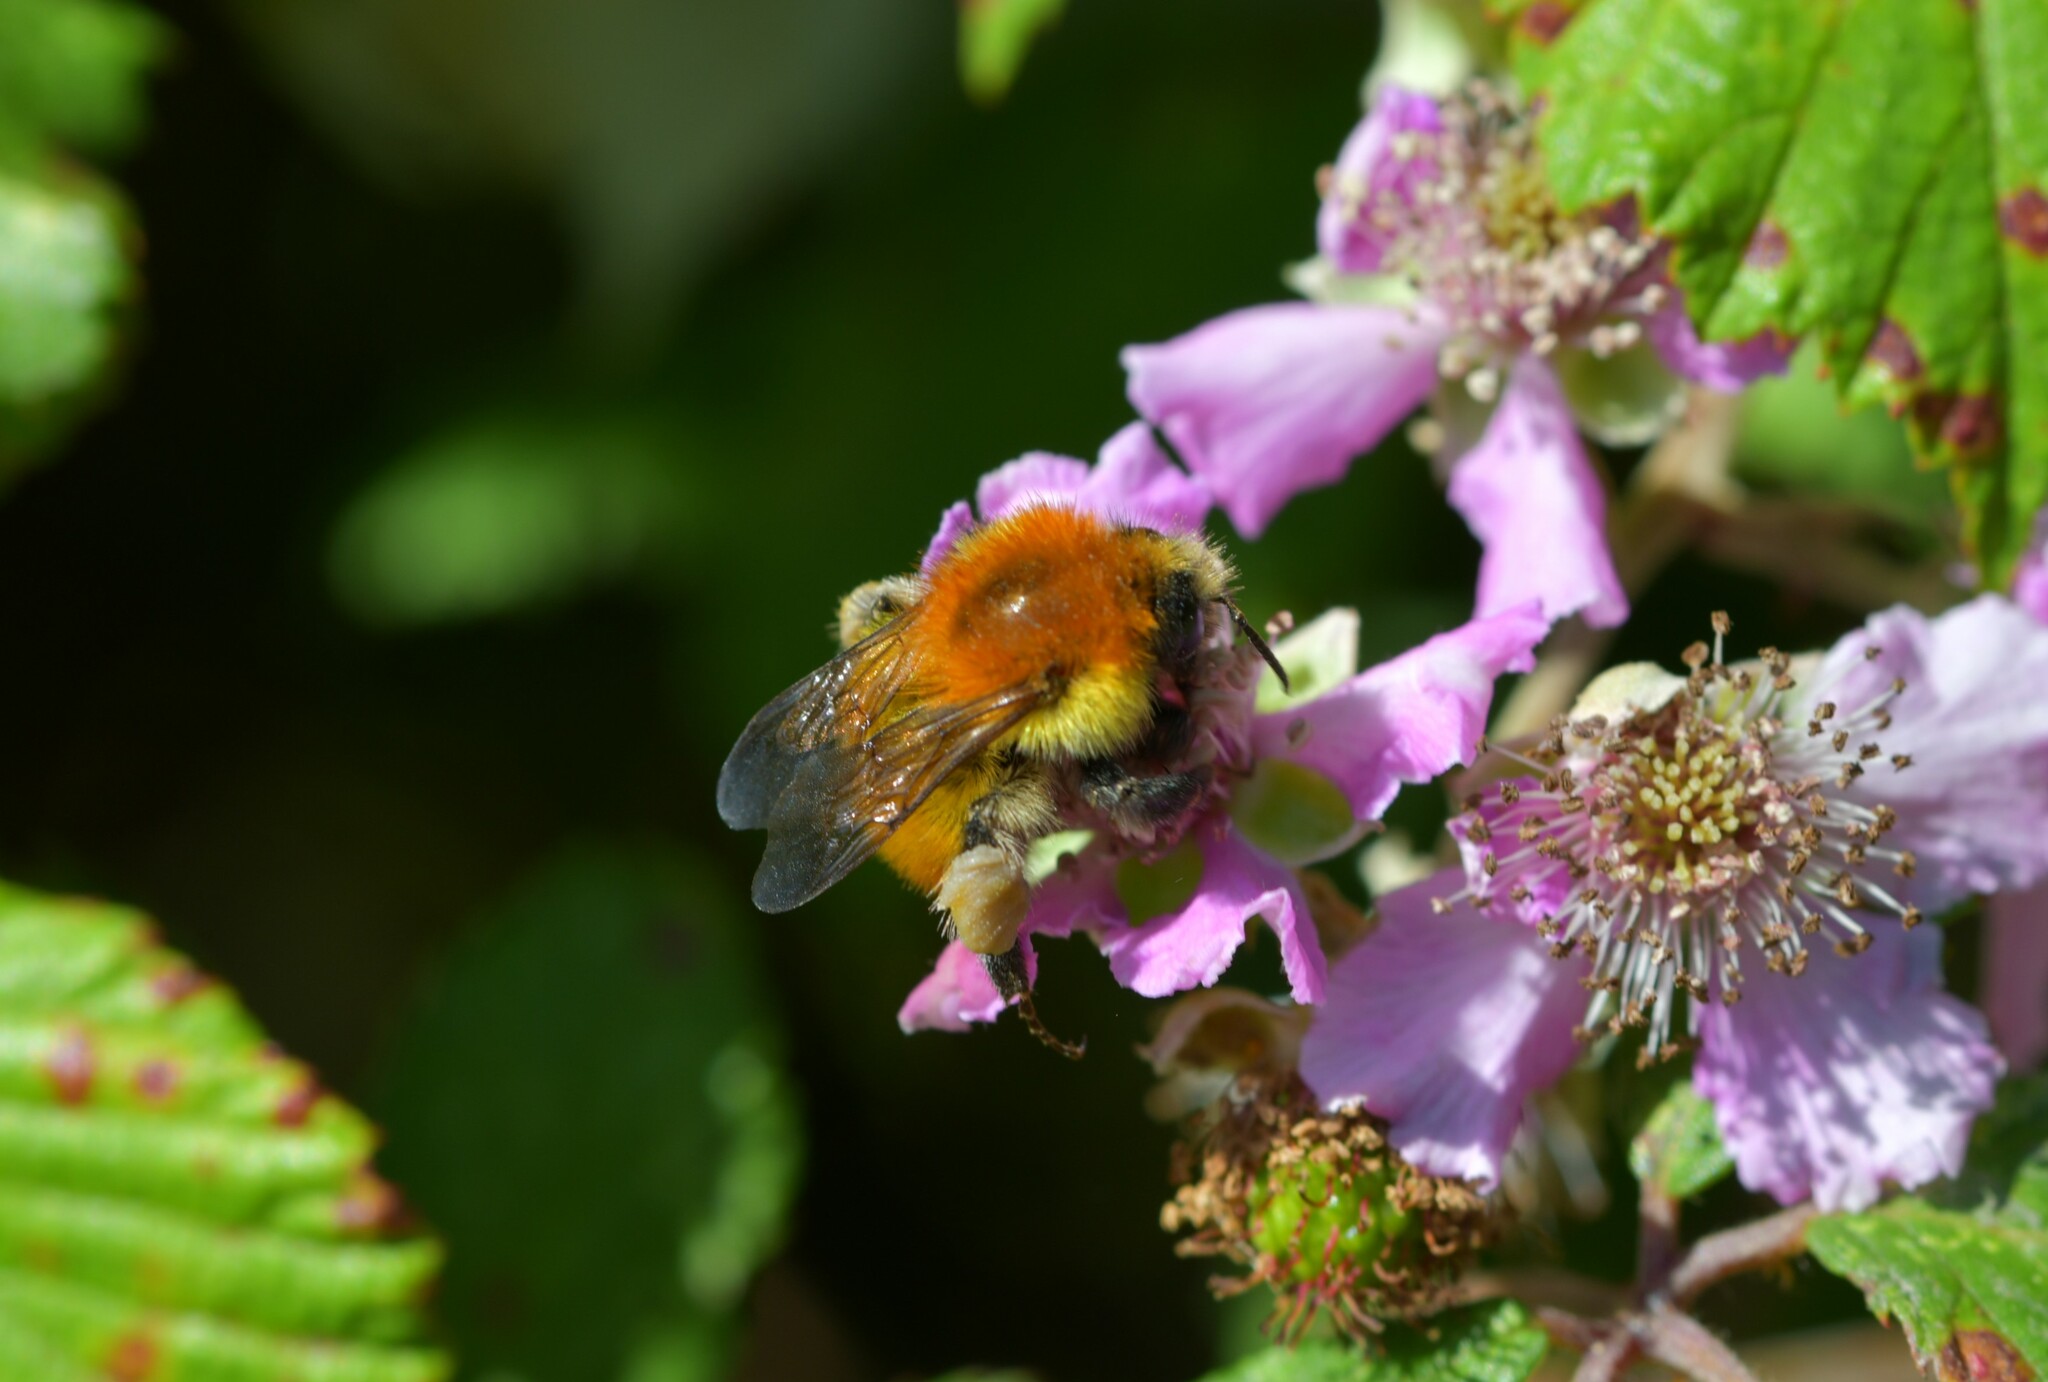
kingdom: Animalia
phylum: Arthropoda
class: Insecta
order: Hymenoptera
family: Apidae
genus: Bombus
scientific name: Bombus pascuorum
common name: Common carder bee
